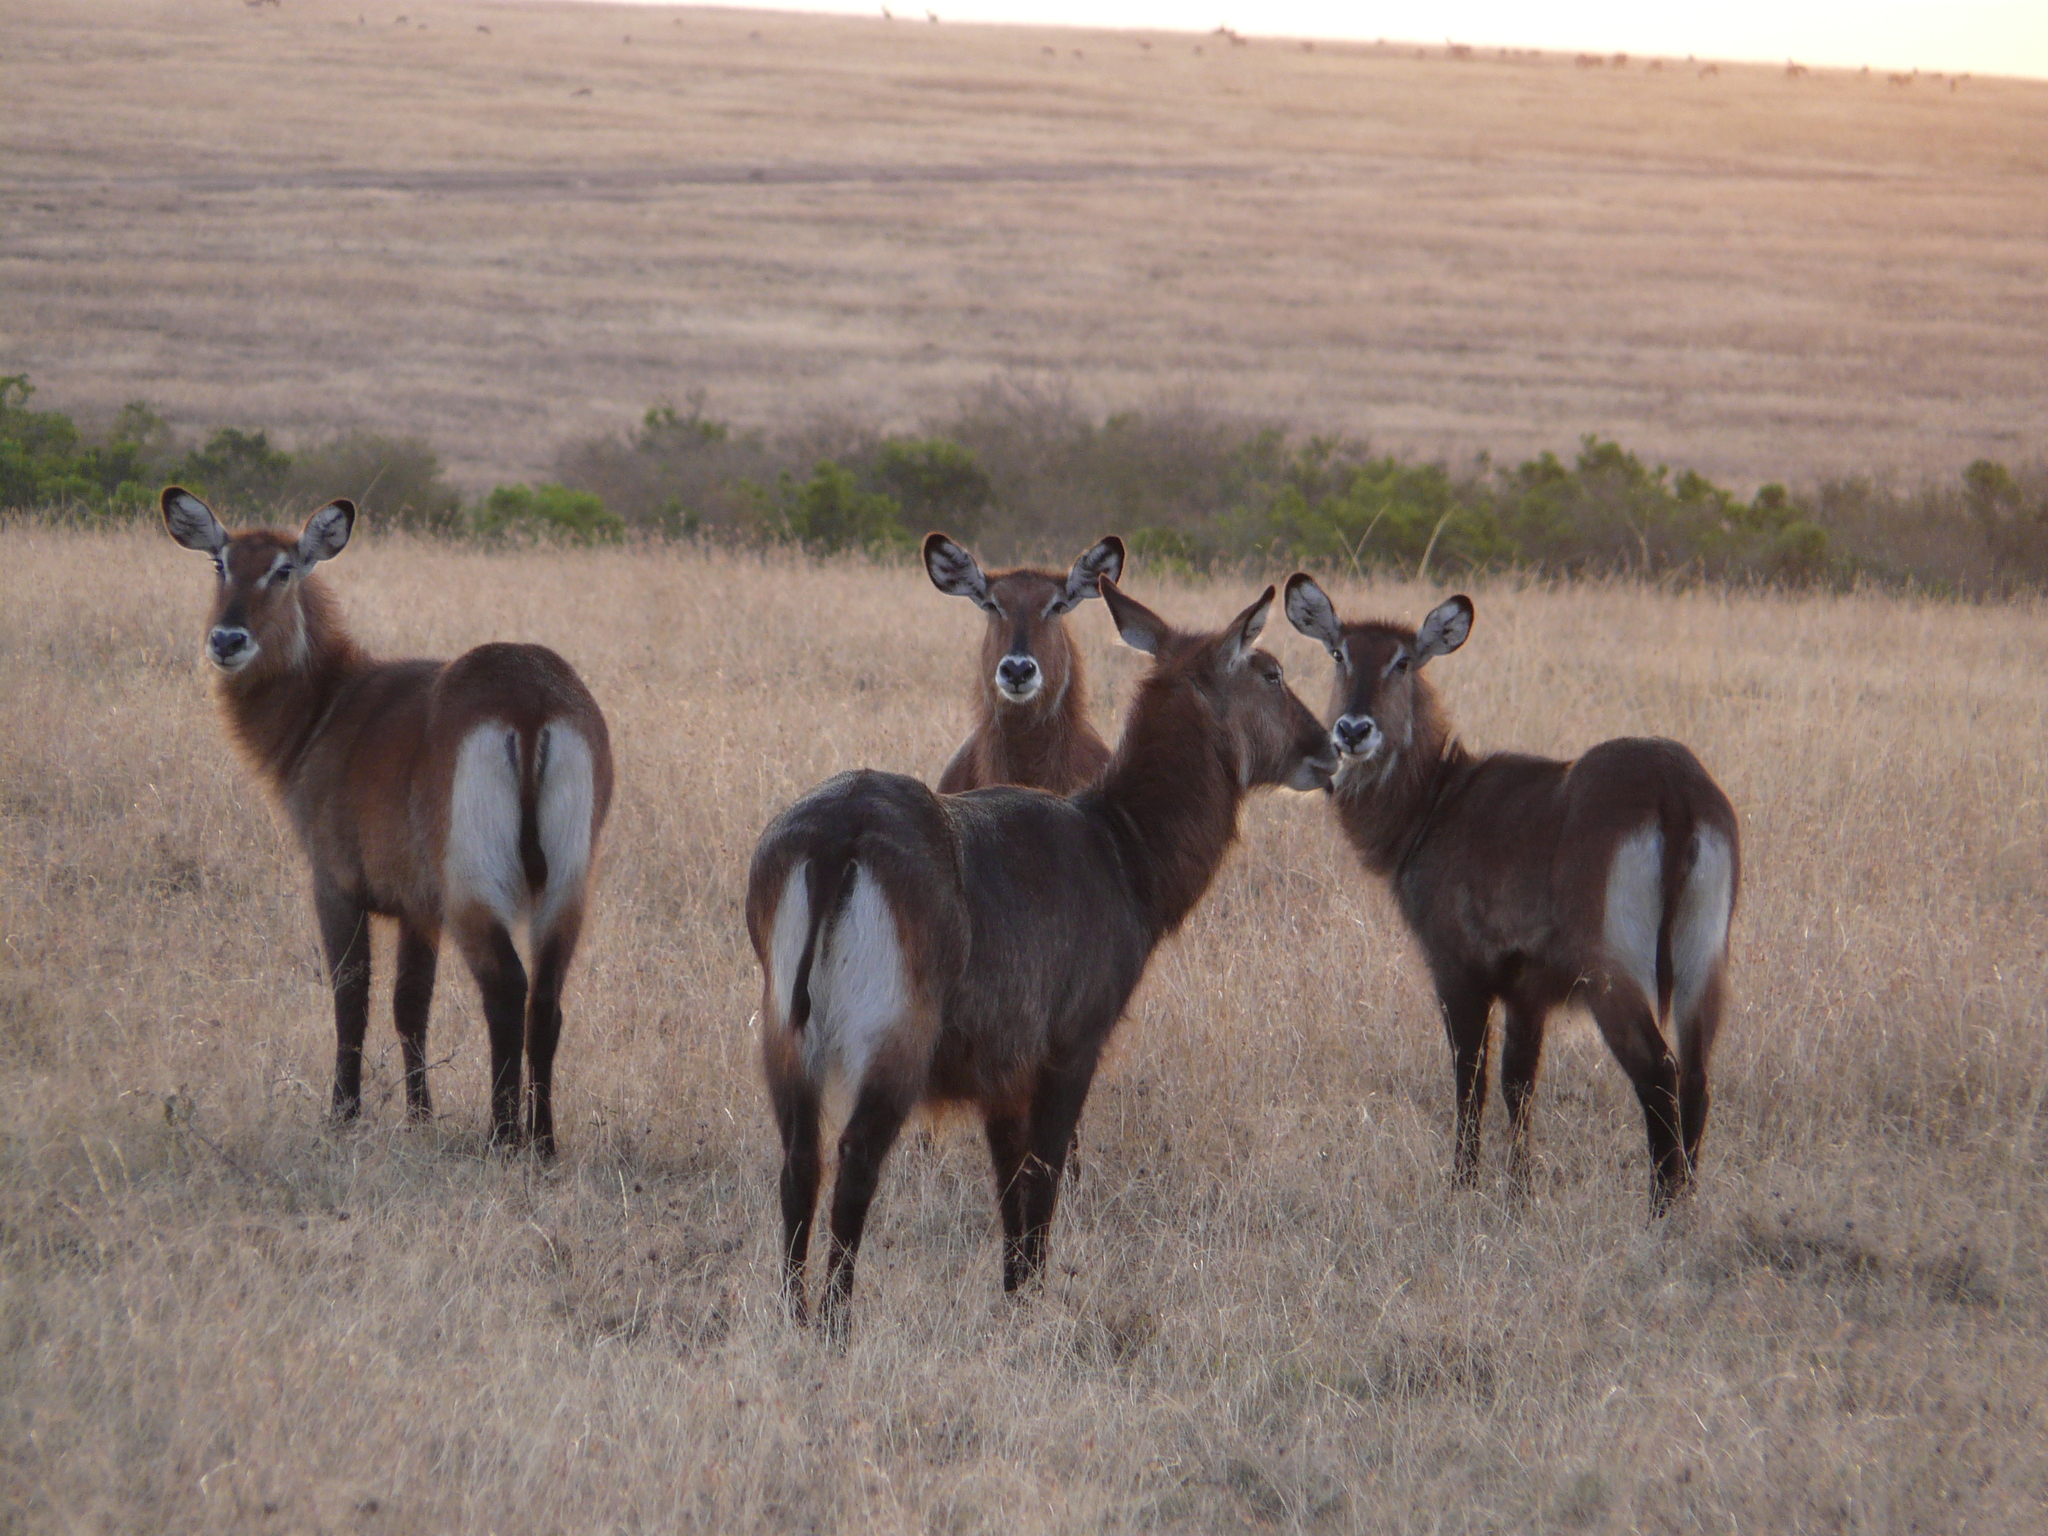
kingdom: Animalia
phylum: Chordata
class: Mammalia
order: Artiodactyla
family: Bovidae
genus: Kobus
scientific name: Kobus ellipsiprymnus
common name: Waterbuck
